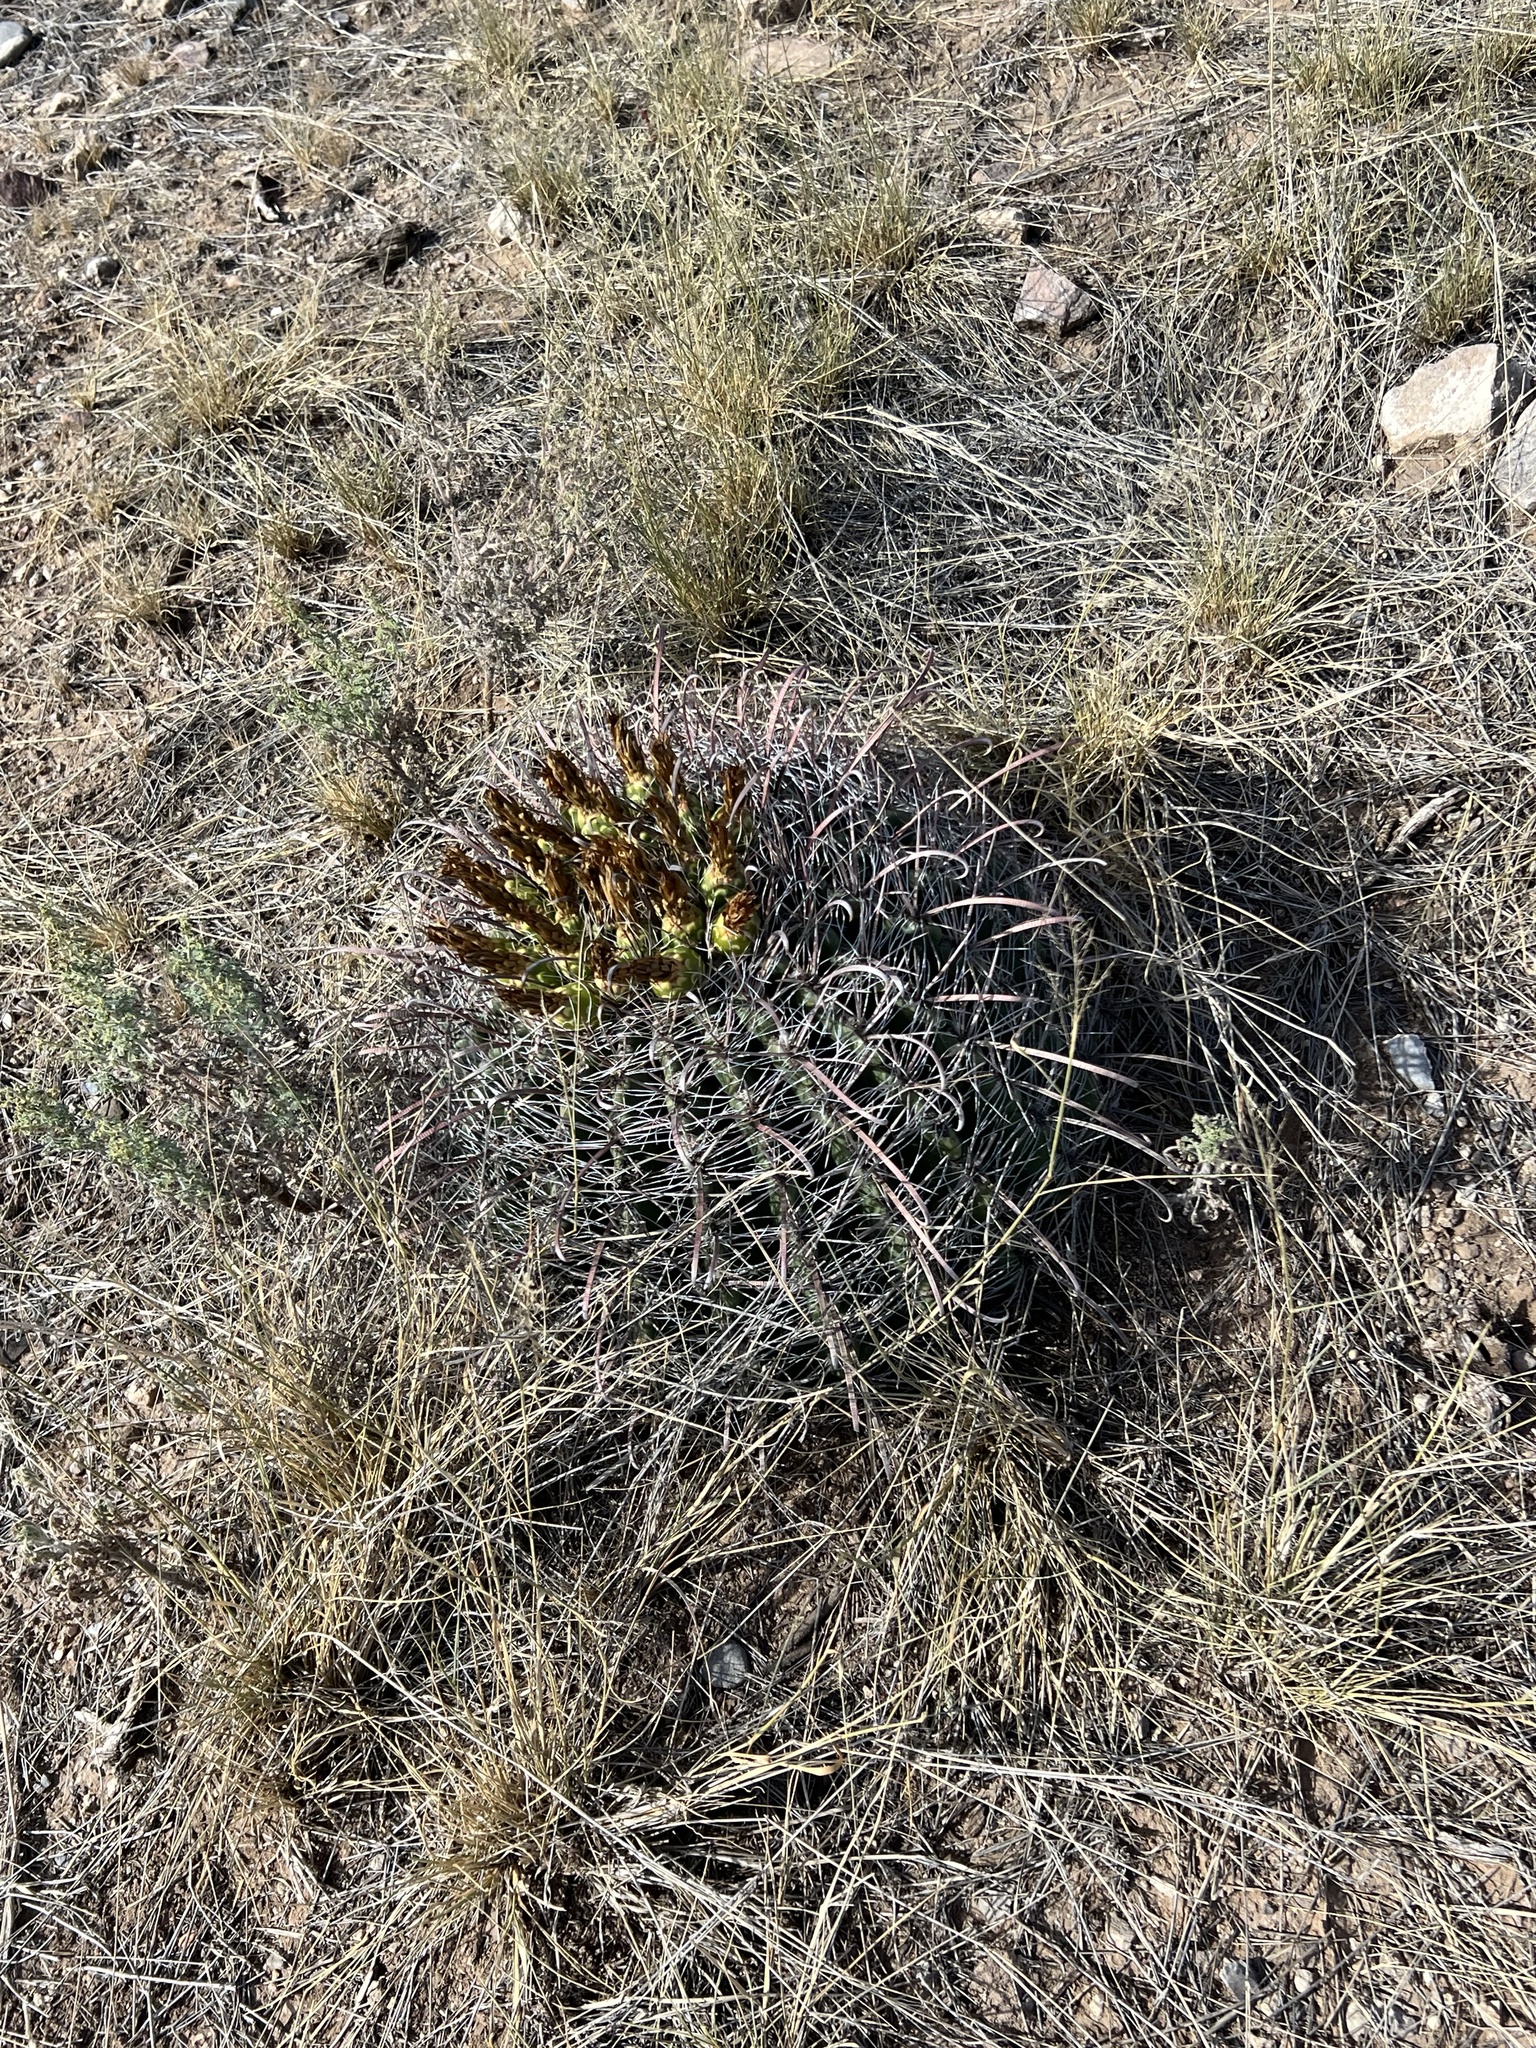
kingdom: Plantae
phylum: Tracheophyta
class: Magnoliopsida
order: Caryophyllales
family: Cactaceae
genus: Ferocactus
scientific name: Ferocactus wislizeni
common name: Candy barrel cactus
